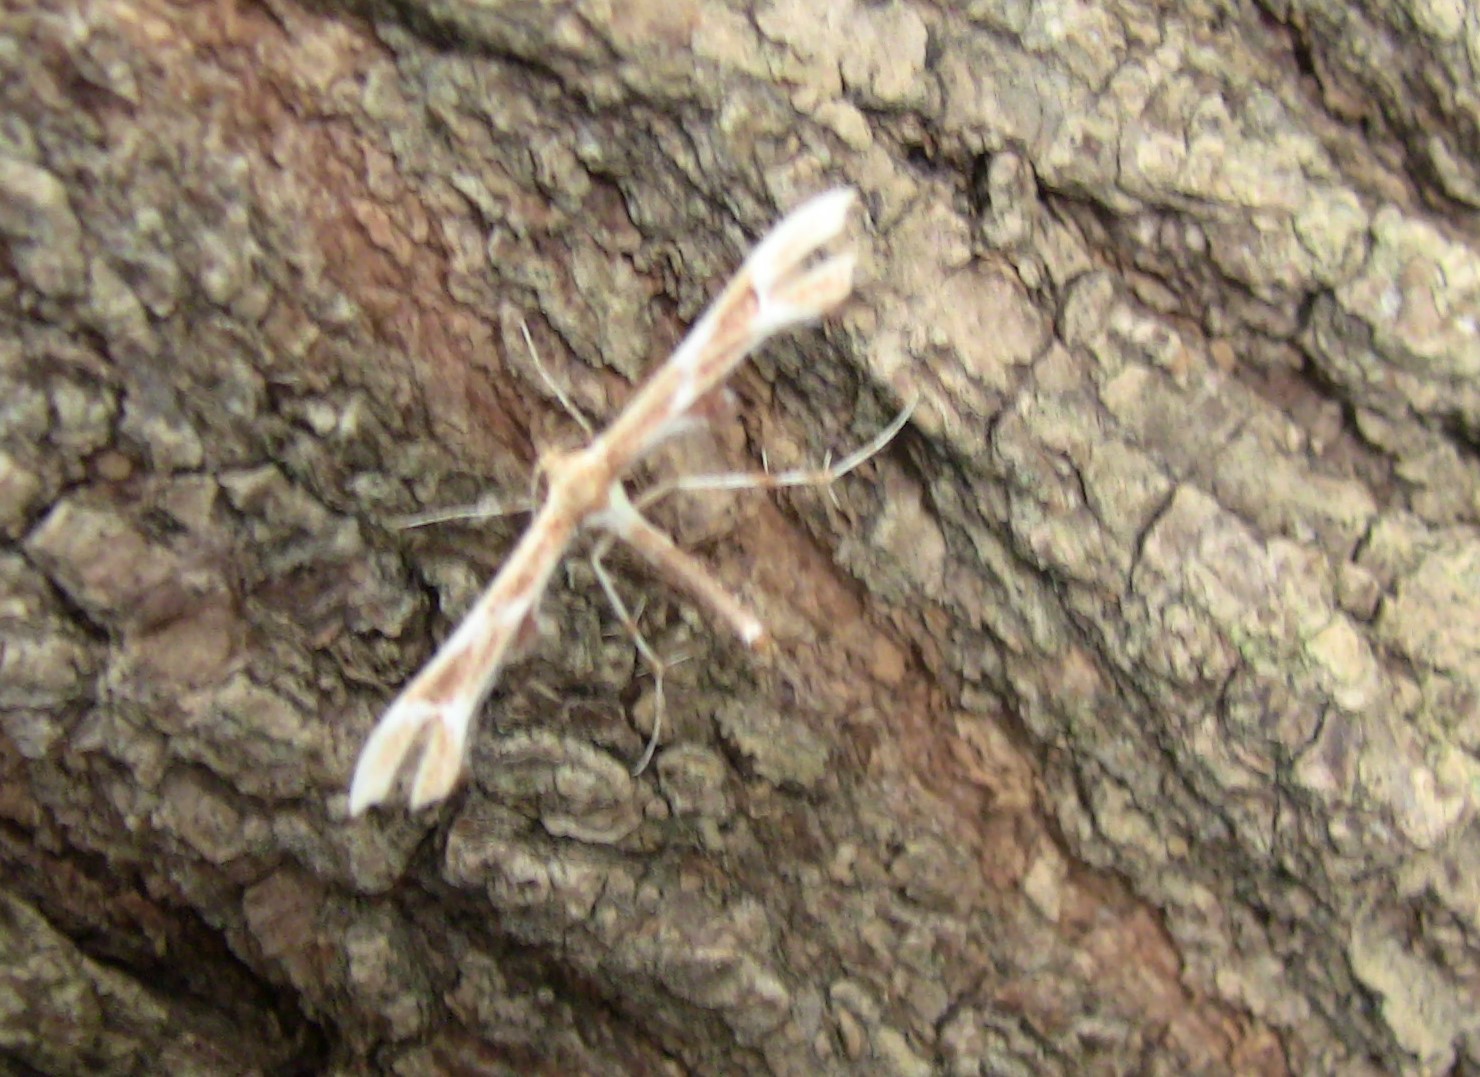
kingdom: Animalia
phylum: Arthropoda
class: Insecta
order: Lepidoptera
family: Pterophoridae
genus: Cnaemidophorus
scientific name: Cnaemidophorus rhododactyla
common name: Rose plume
